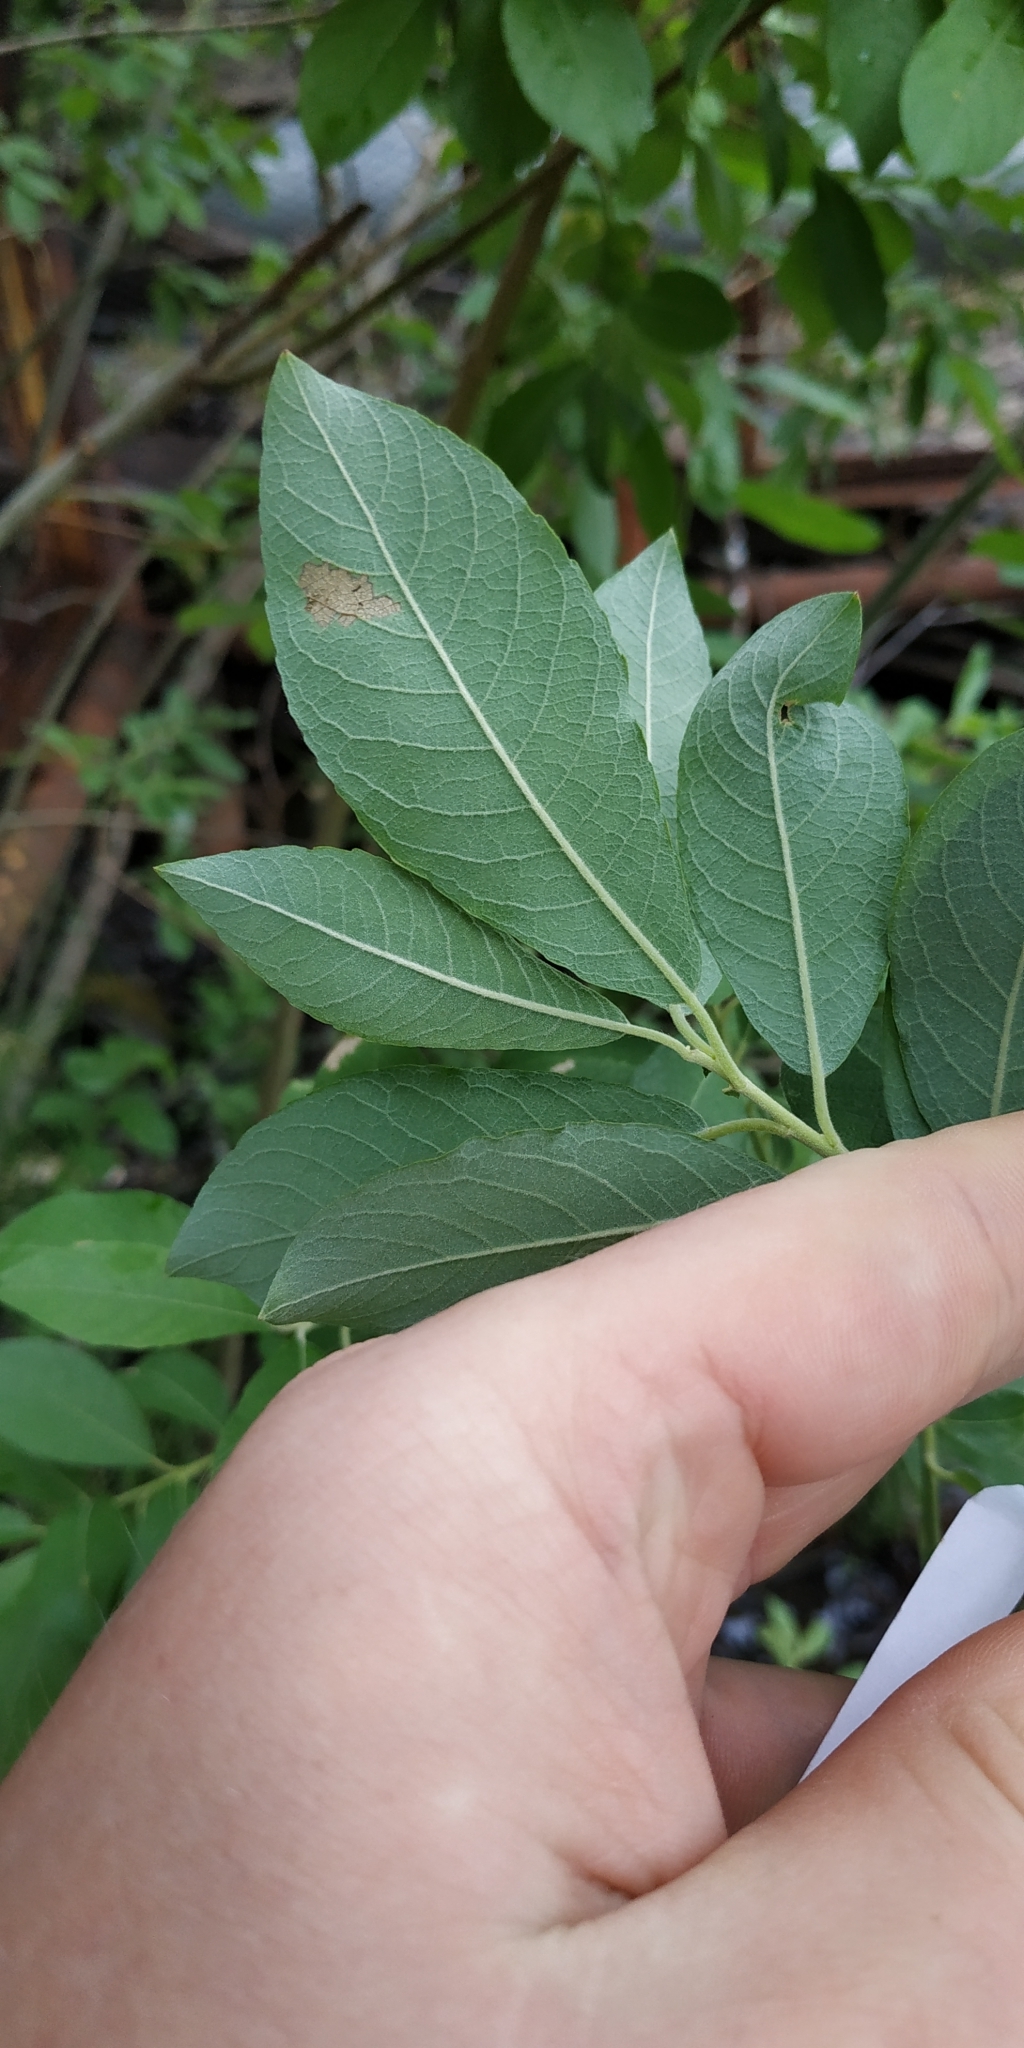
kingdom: Plantae
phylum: Tracheophyta
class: Magnoliopsida
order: Malpighiales
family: Salicaceae
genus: Salix
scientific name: Salix cinerea
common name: Common sallow
